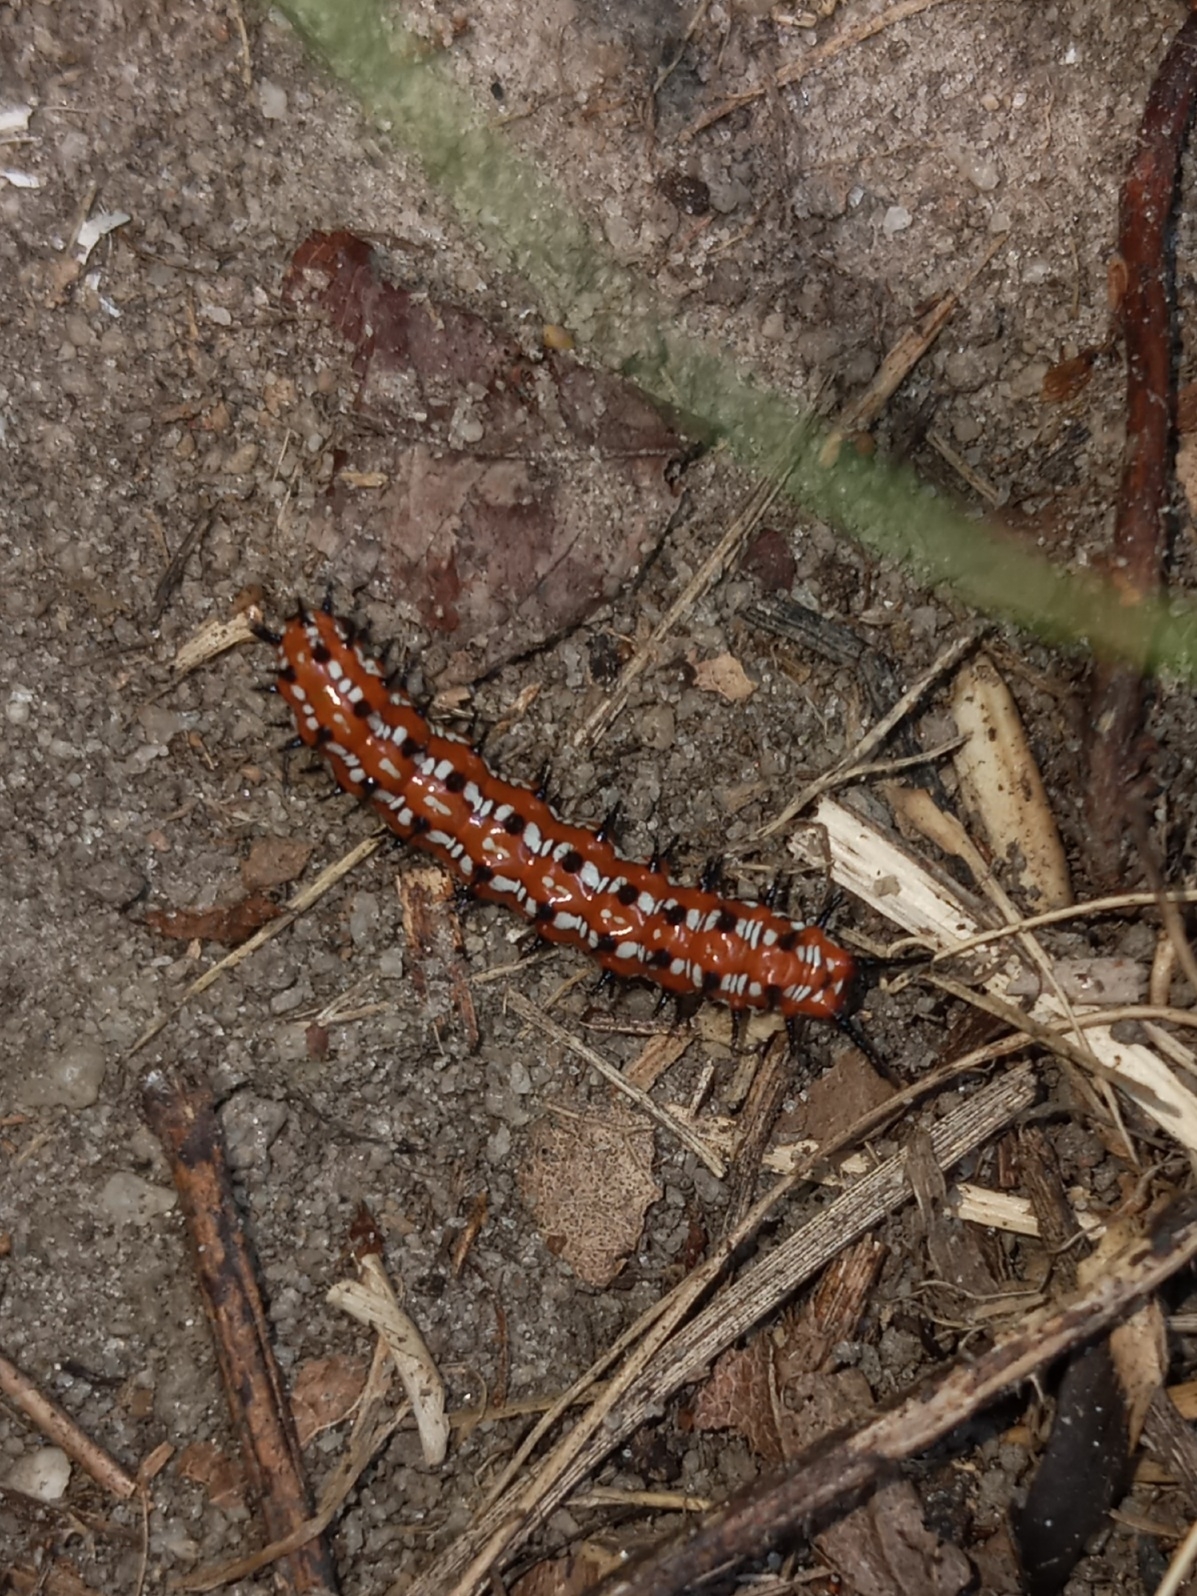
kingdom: Animalia
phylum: Arthropoda
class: Insecta
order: Lepidoptera
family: Nymphalidae
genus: Euptoieta
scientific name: Euptoieta claudia
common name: Variegated fritillary
